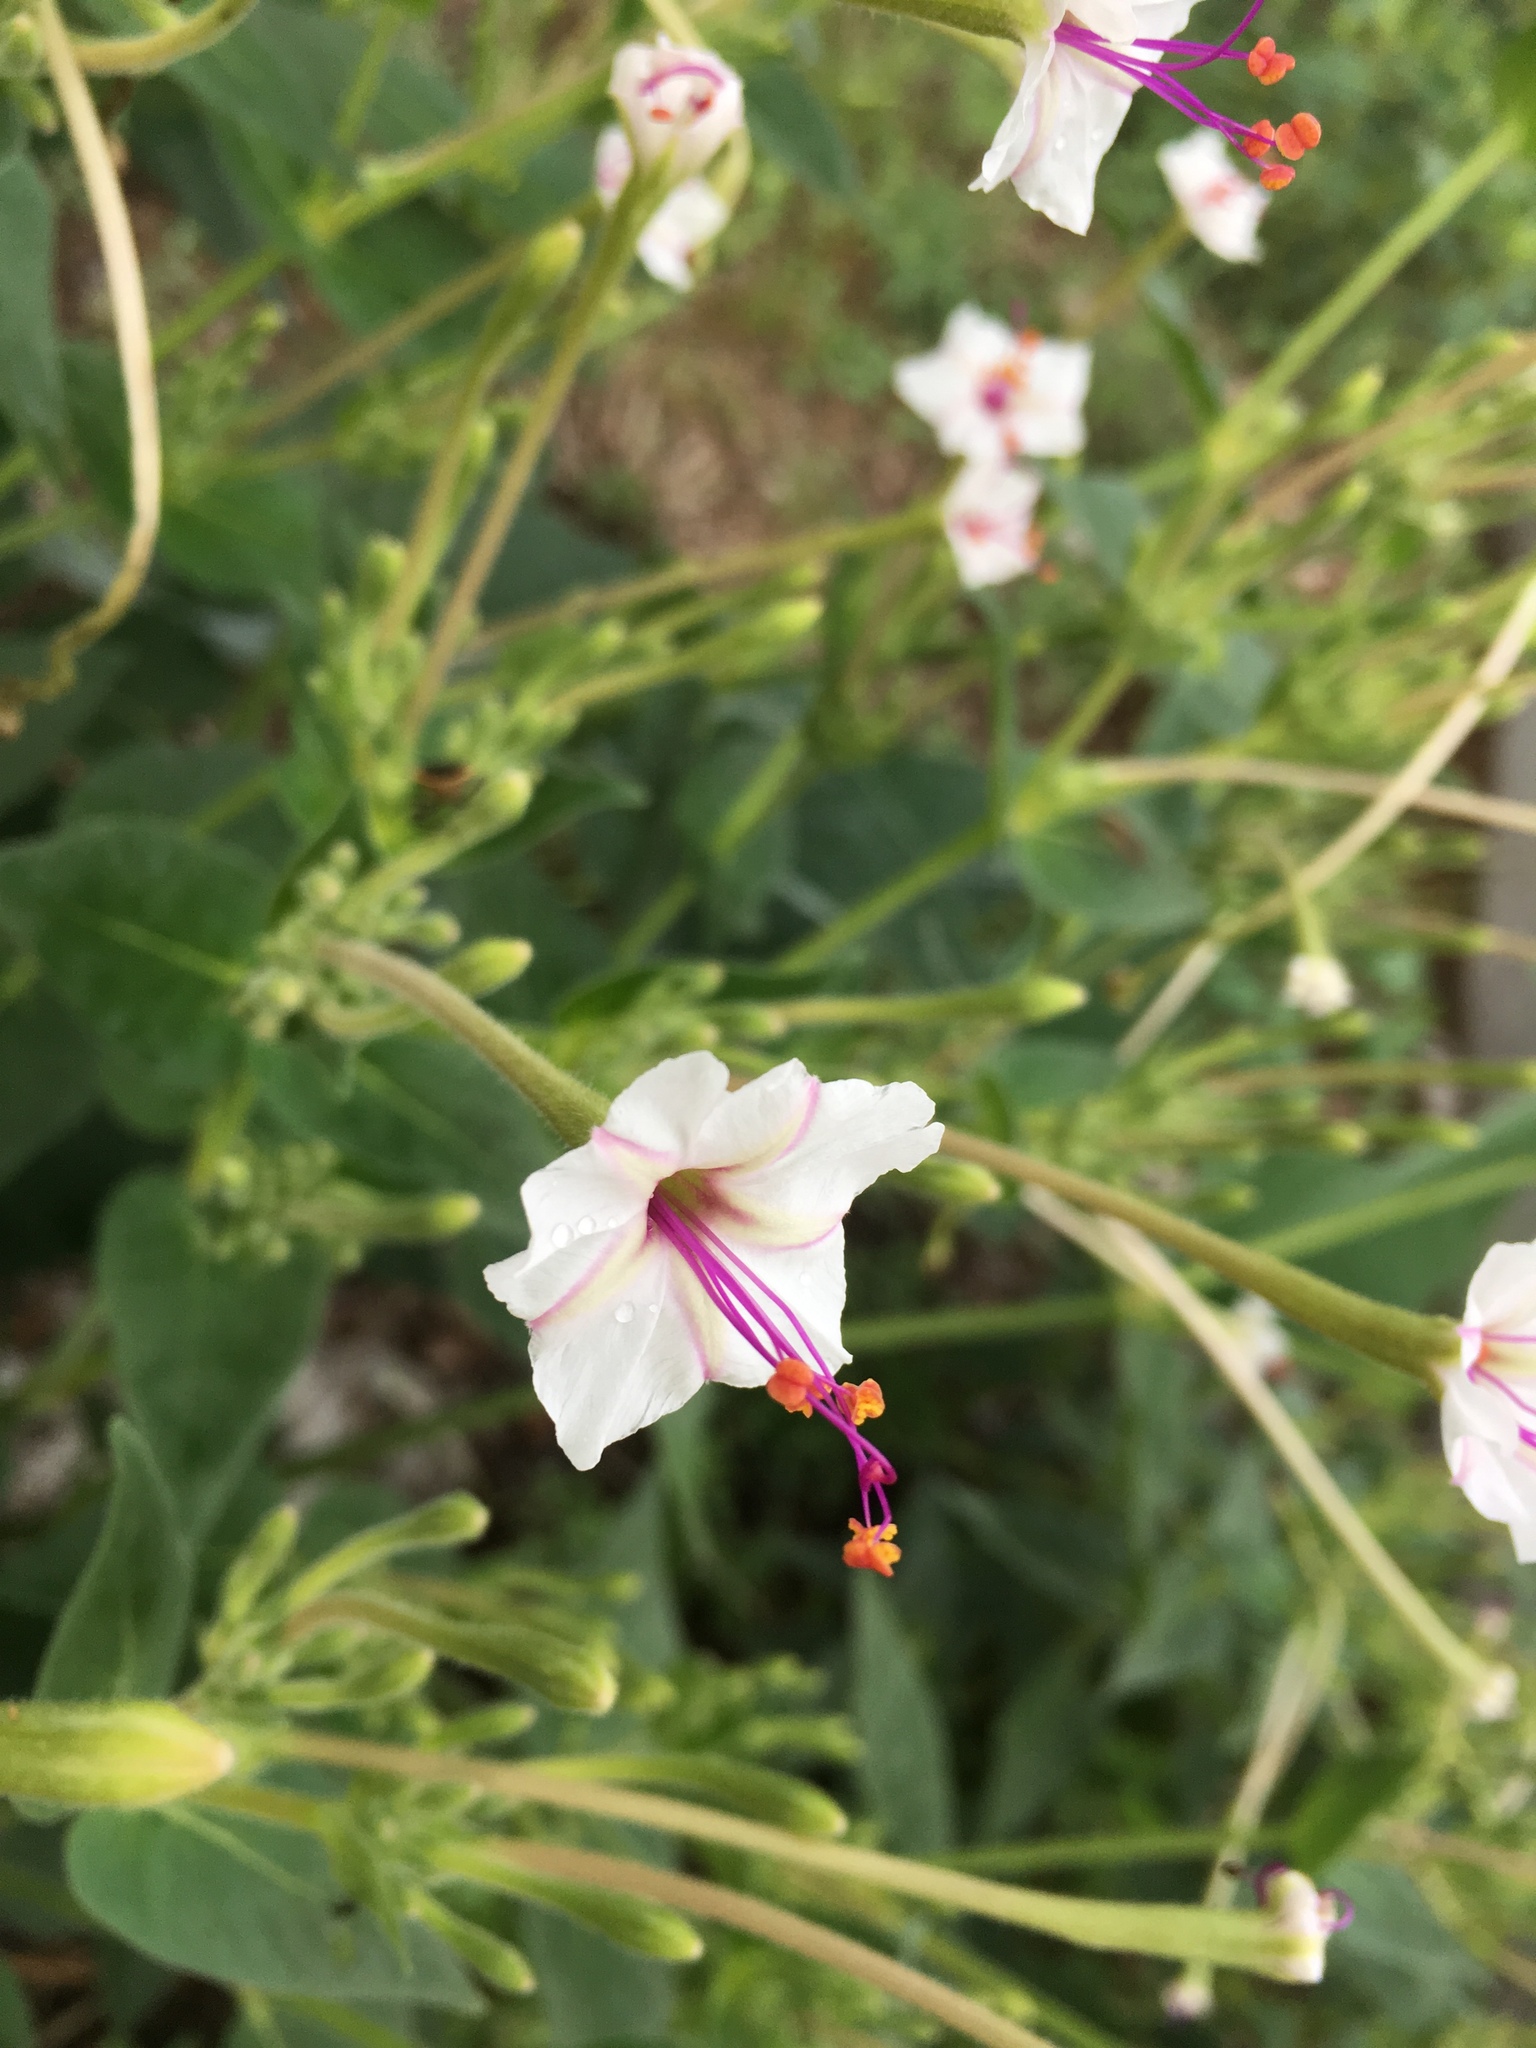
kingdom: Plantae
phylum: Tracheophyta
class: Magnoliopsida
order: Caryophyllales
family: Nyctaginaceae
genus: Mirabilis
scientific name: Mirabilis longiflora
